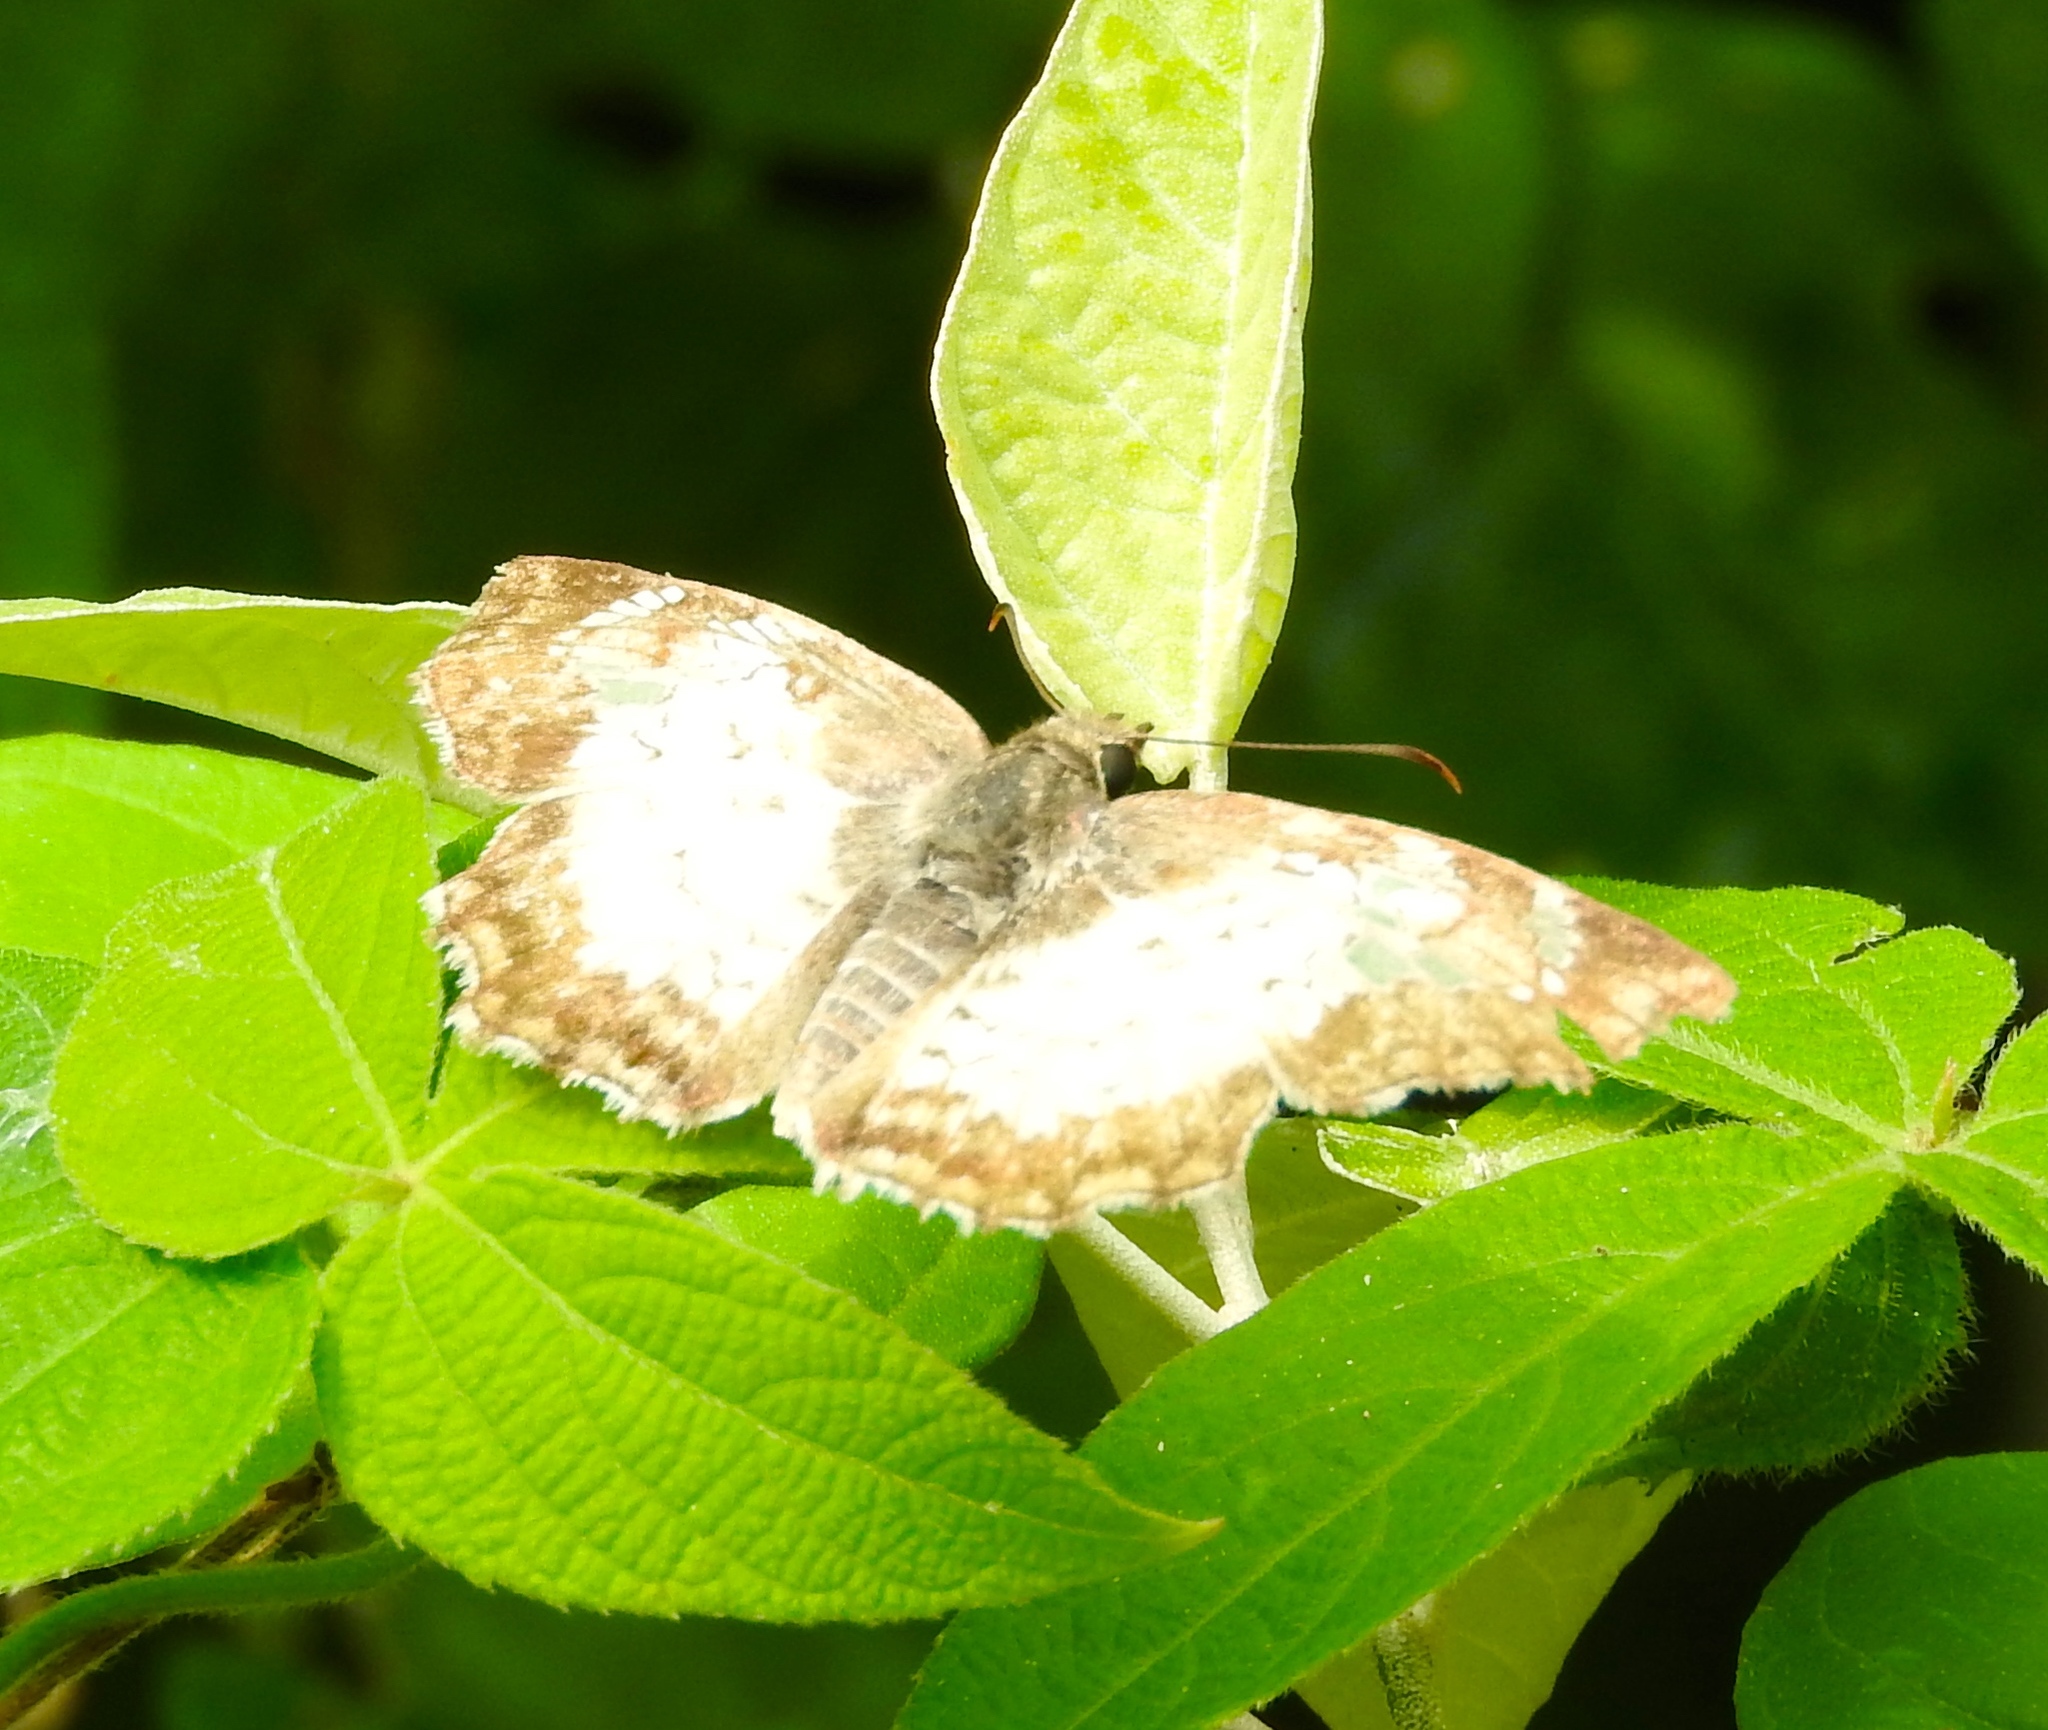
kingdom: Animalia
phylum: Arthropoda
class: Insecta
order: Lepidoptera
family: Hesperiidae
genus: Antigonus
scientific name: Antigonus emorsa
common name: White spurwing
